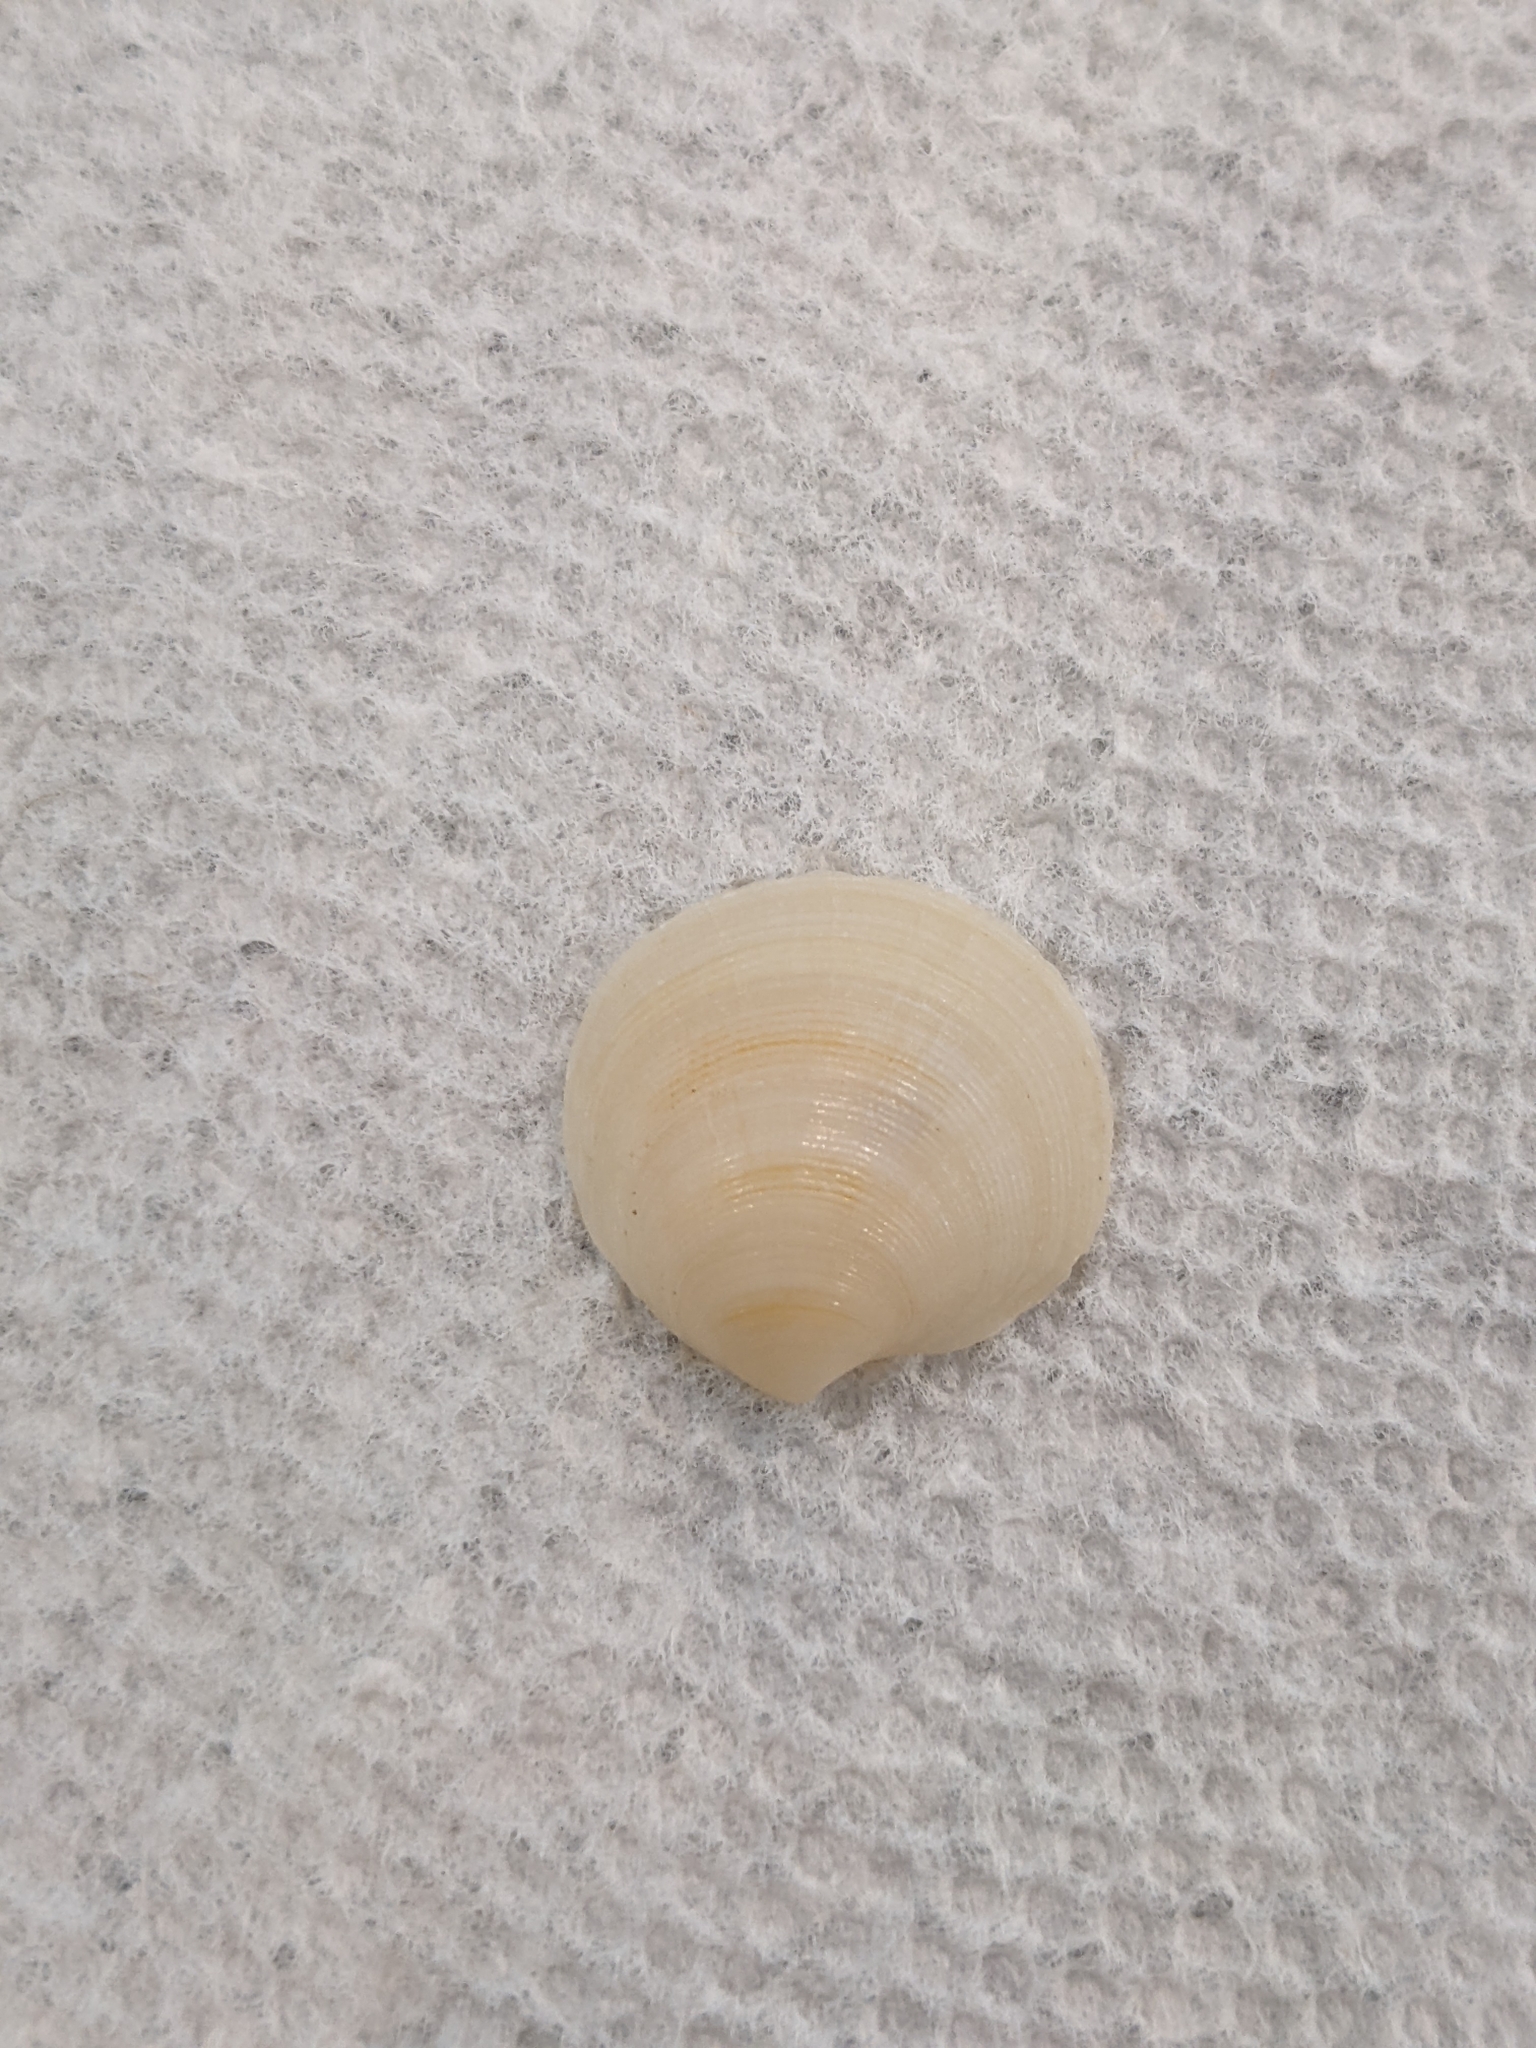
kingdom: Animalia
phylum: Mollusca
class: Bivalvia
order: Lucinida
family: Lucinidae
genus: Callucina
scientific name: Callucina keenae
